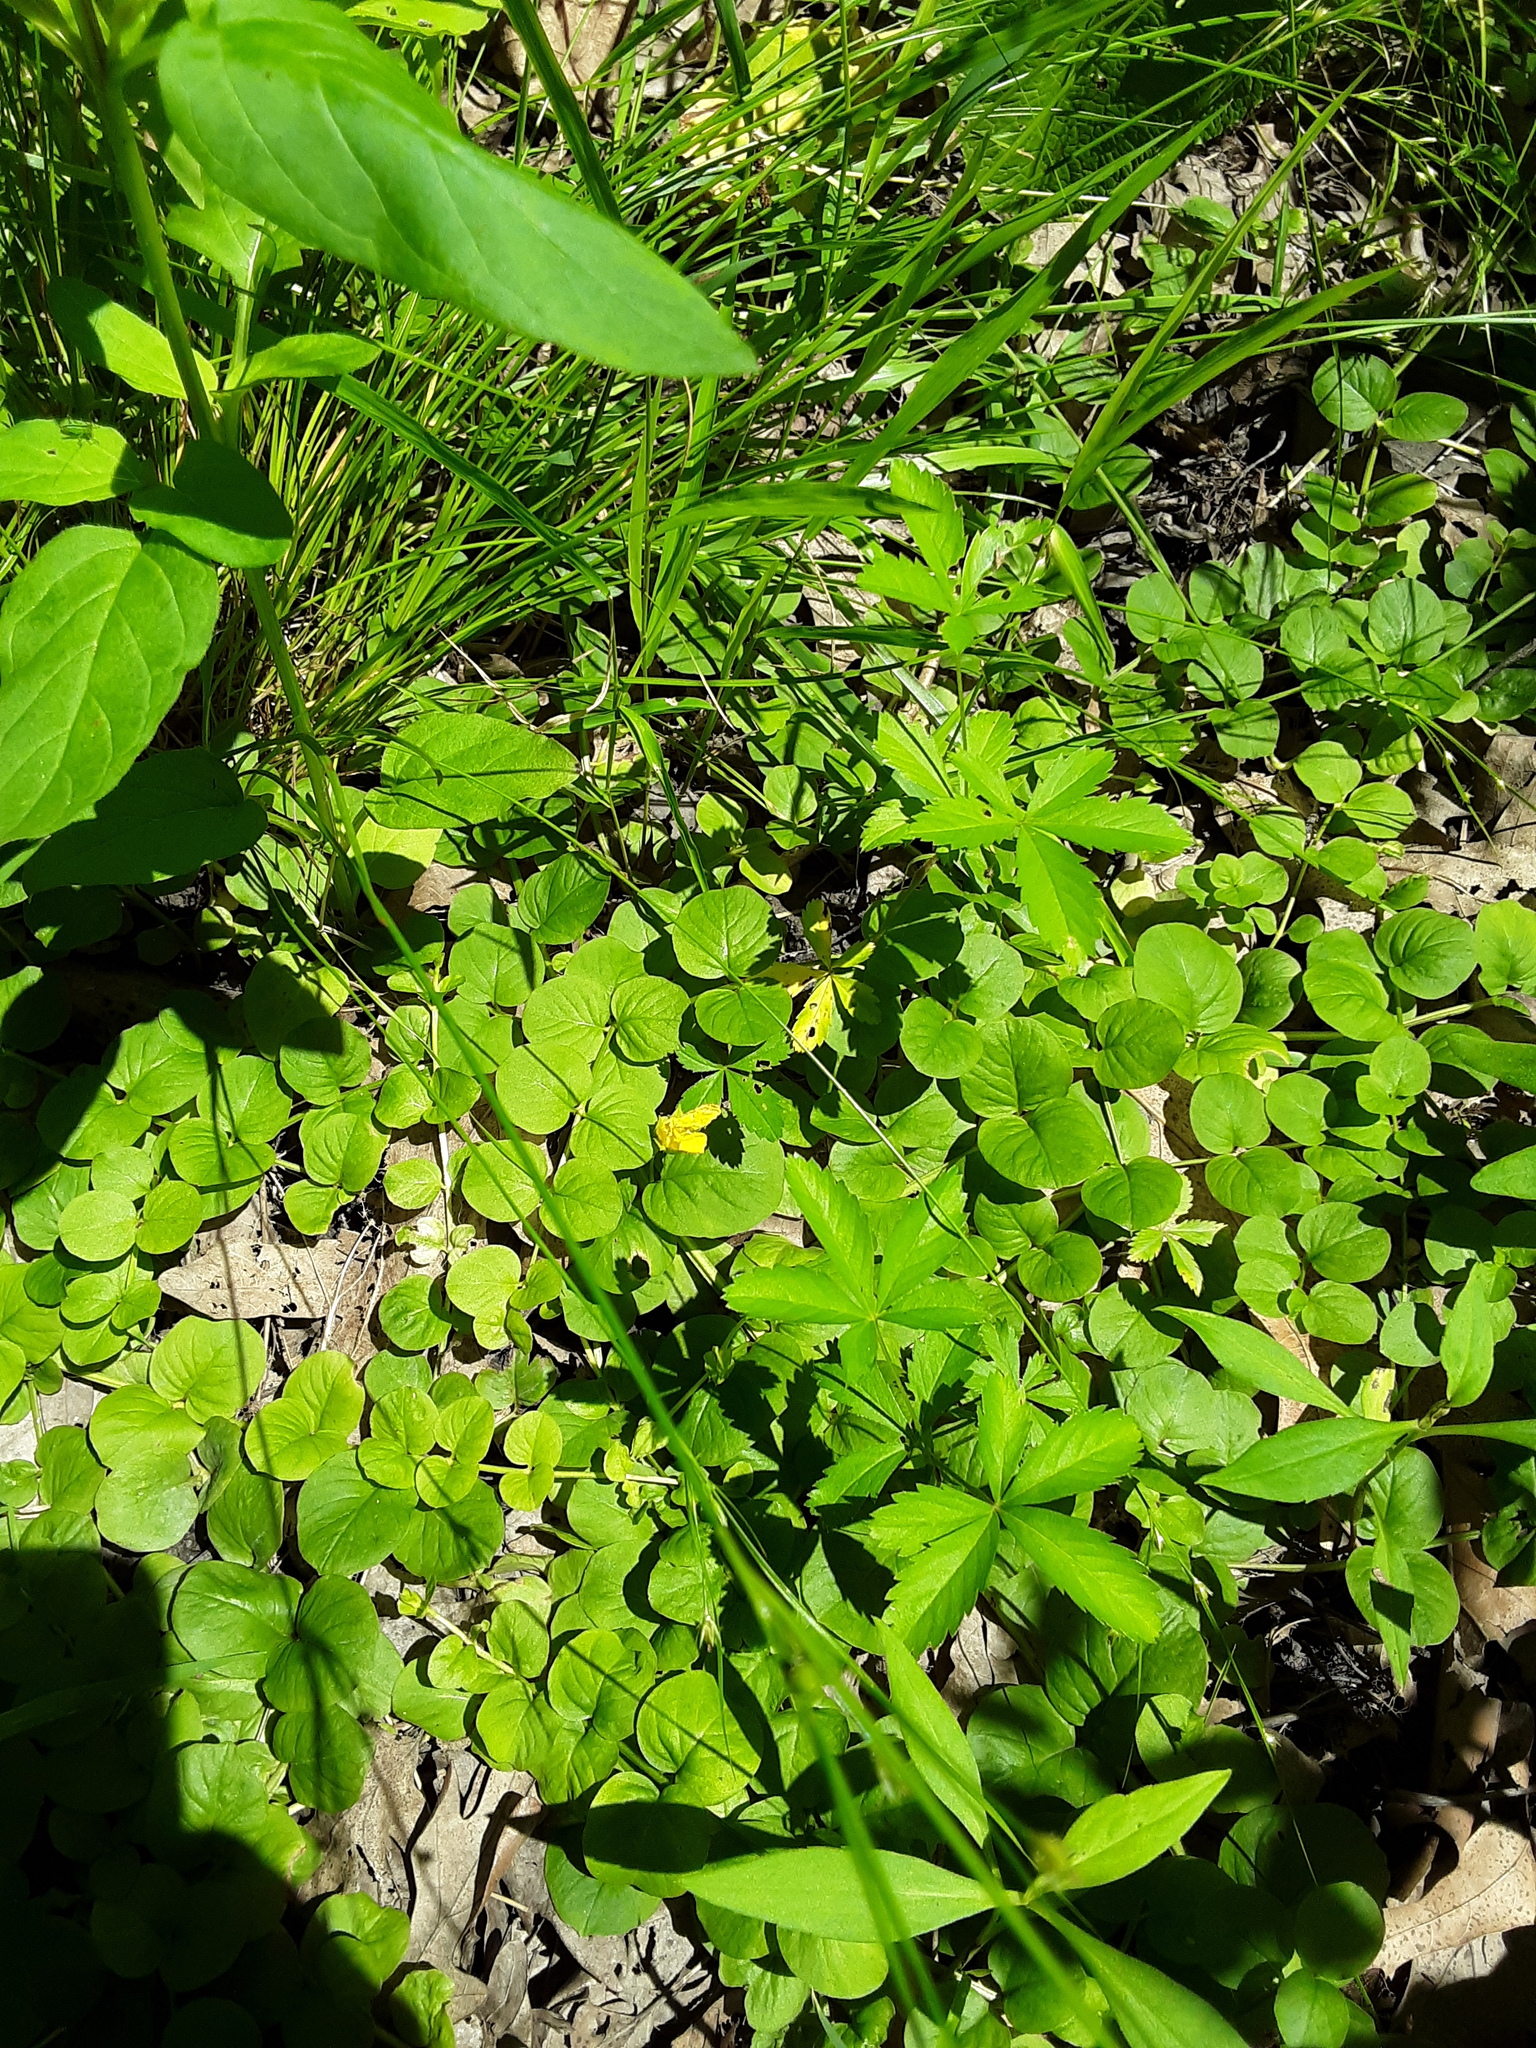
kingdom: Plantae
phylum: Tracheophyta
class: Magnoliopsida
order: Ericales
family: Primulaceae
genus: Lysimachia
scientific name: Lysimachia nummularia
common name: Moneywort
